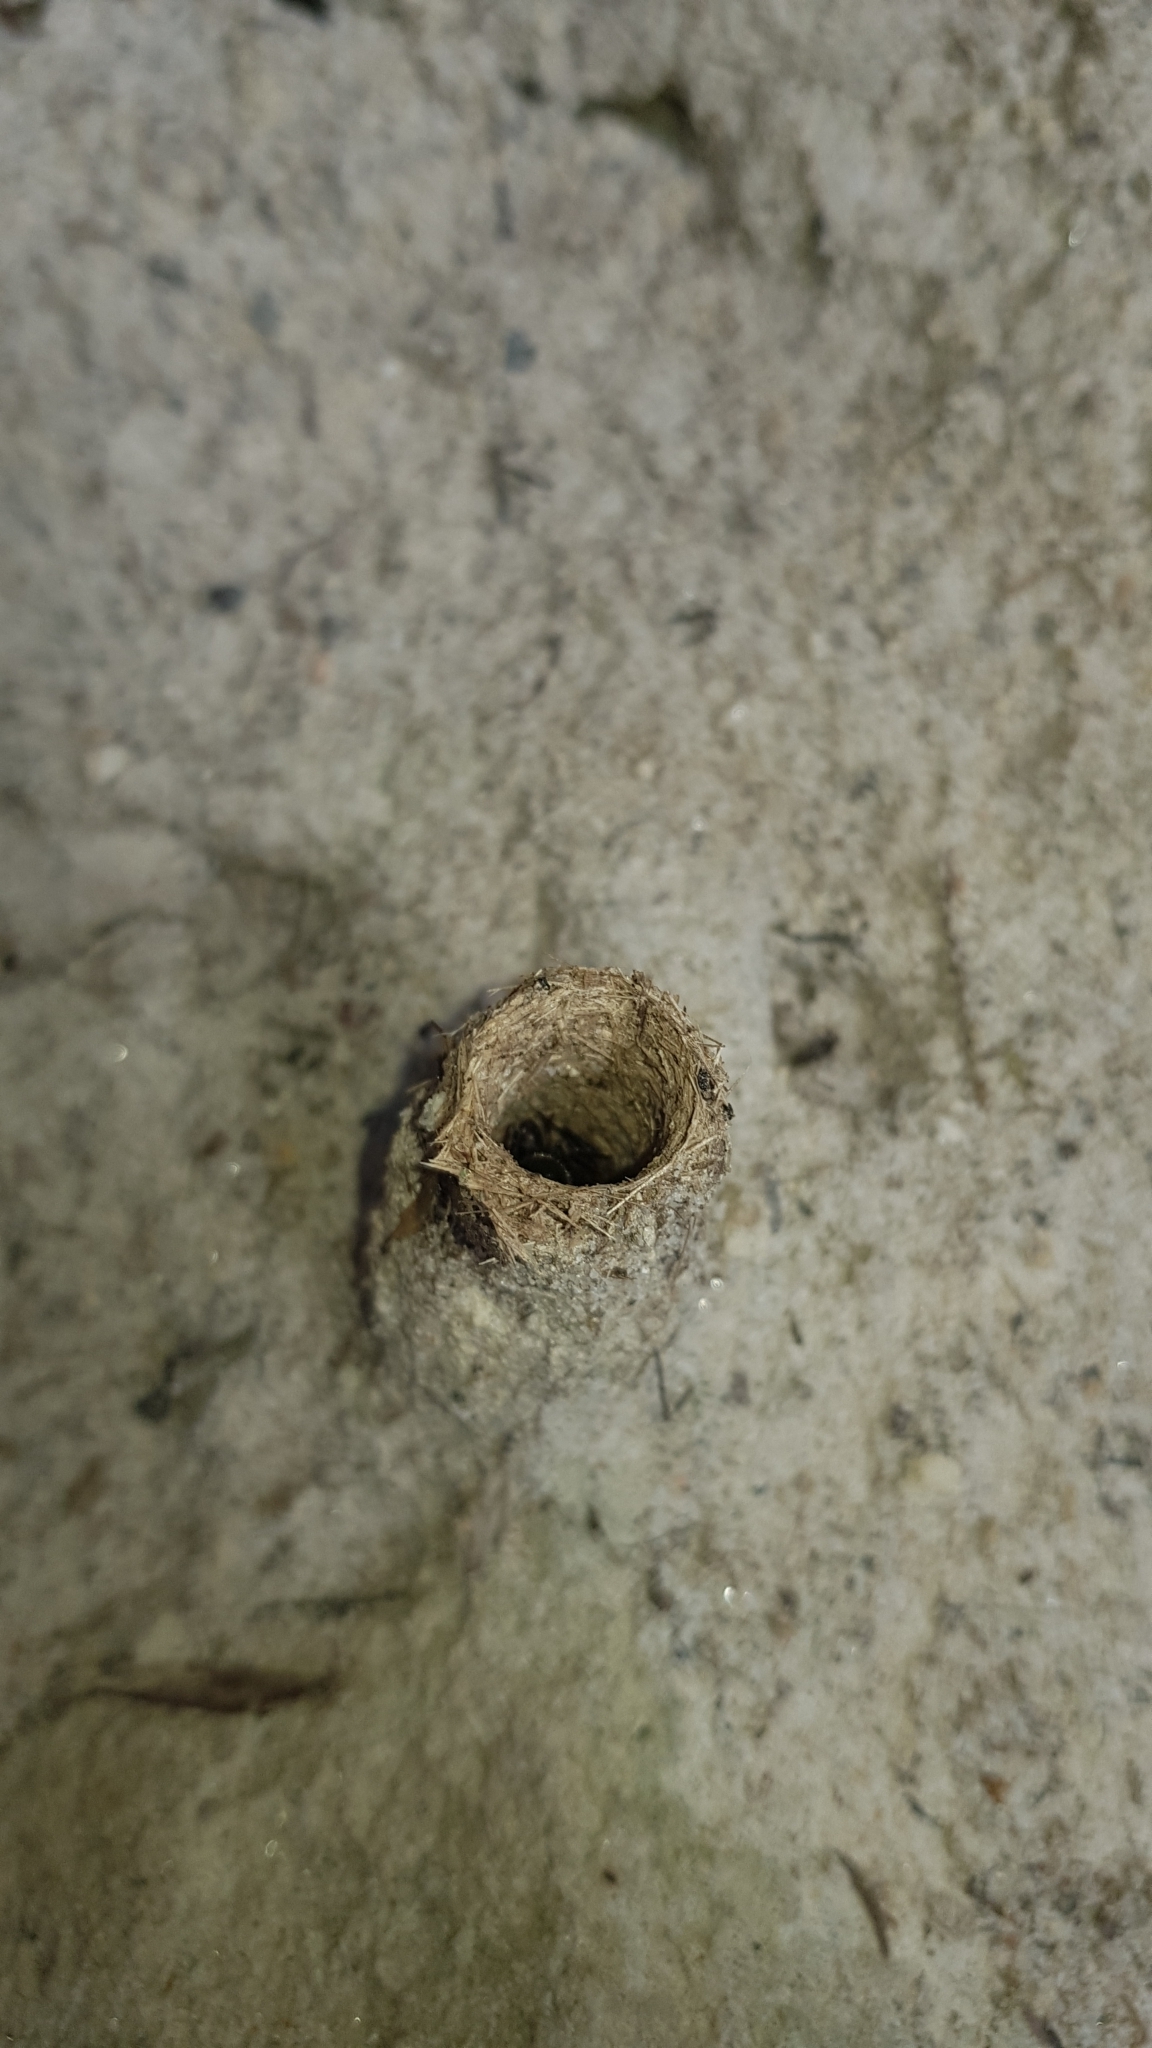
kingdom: Animalia
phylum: Arthropoda
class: Insecta
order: Hymenoptera
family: Formicidae
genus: Camponotus
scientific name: Camponotus intrepidus
